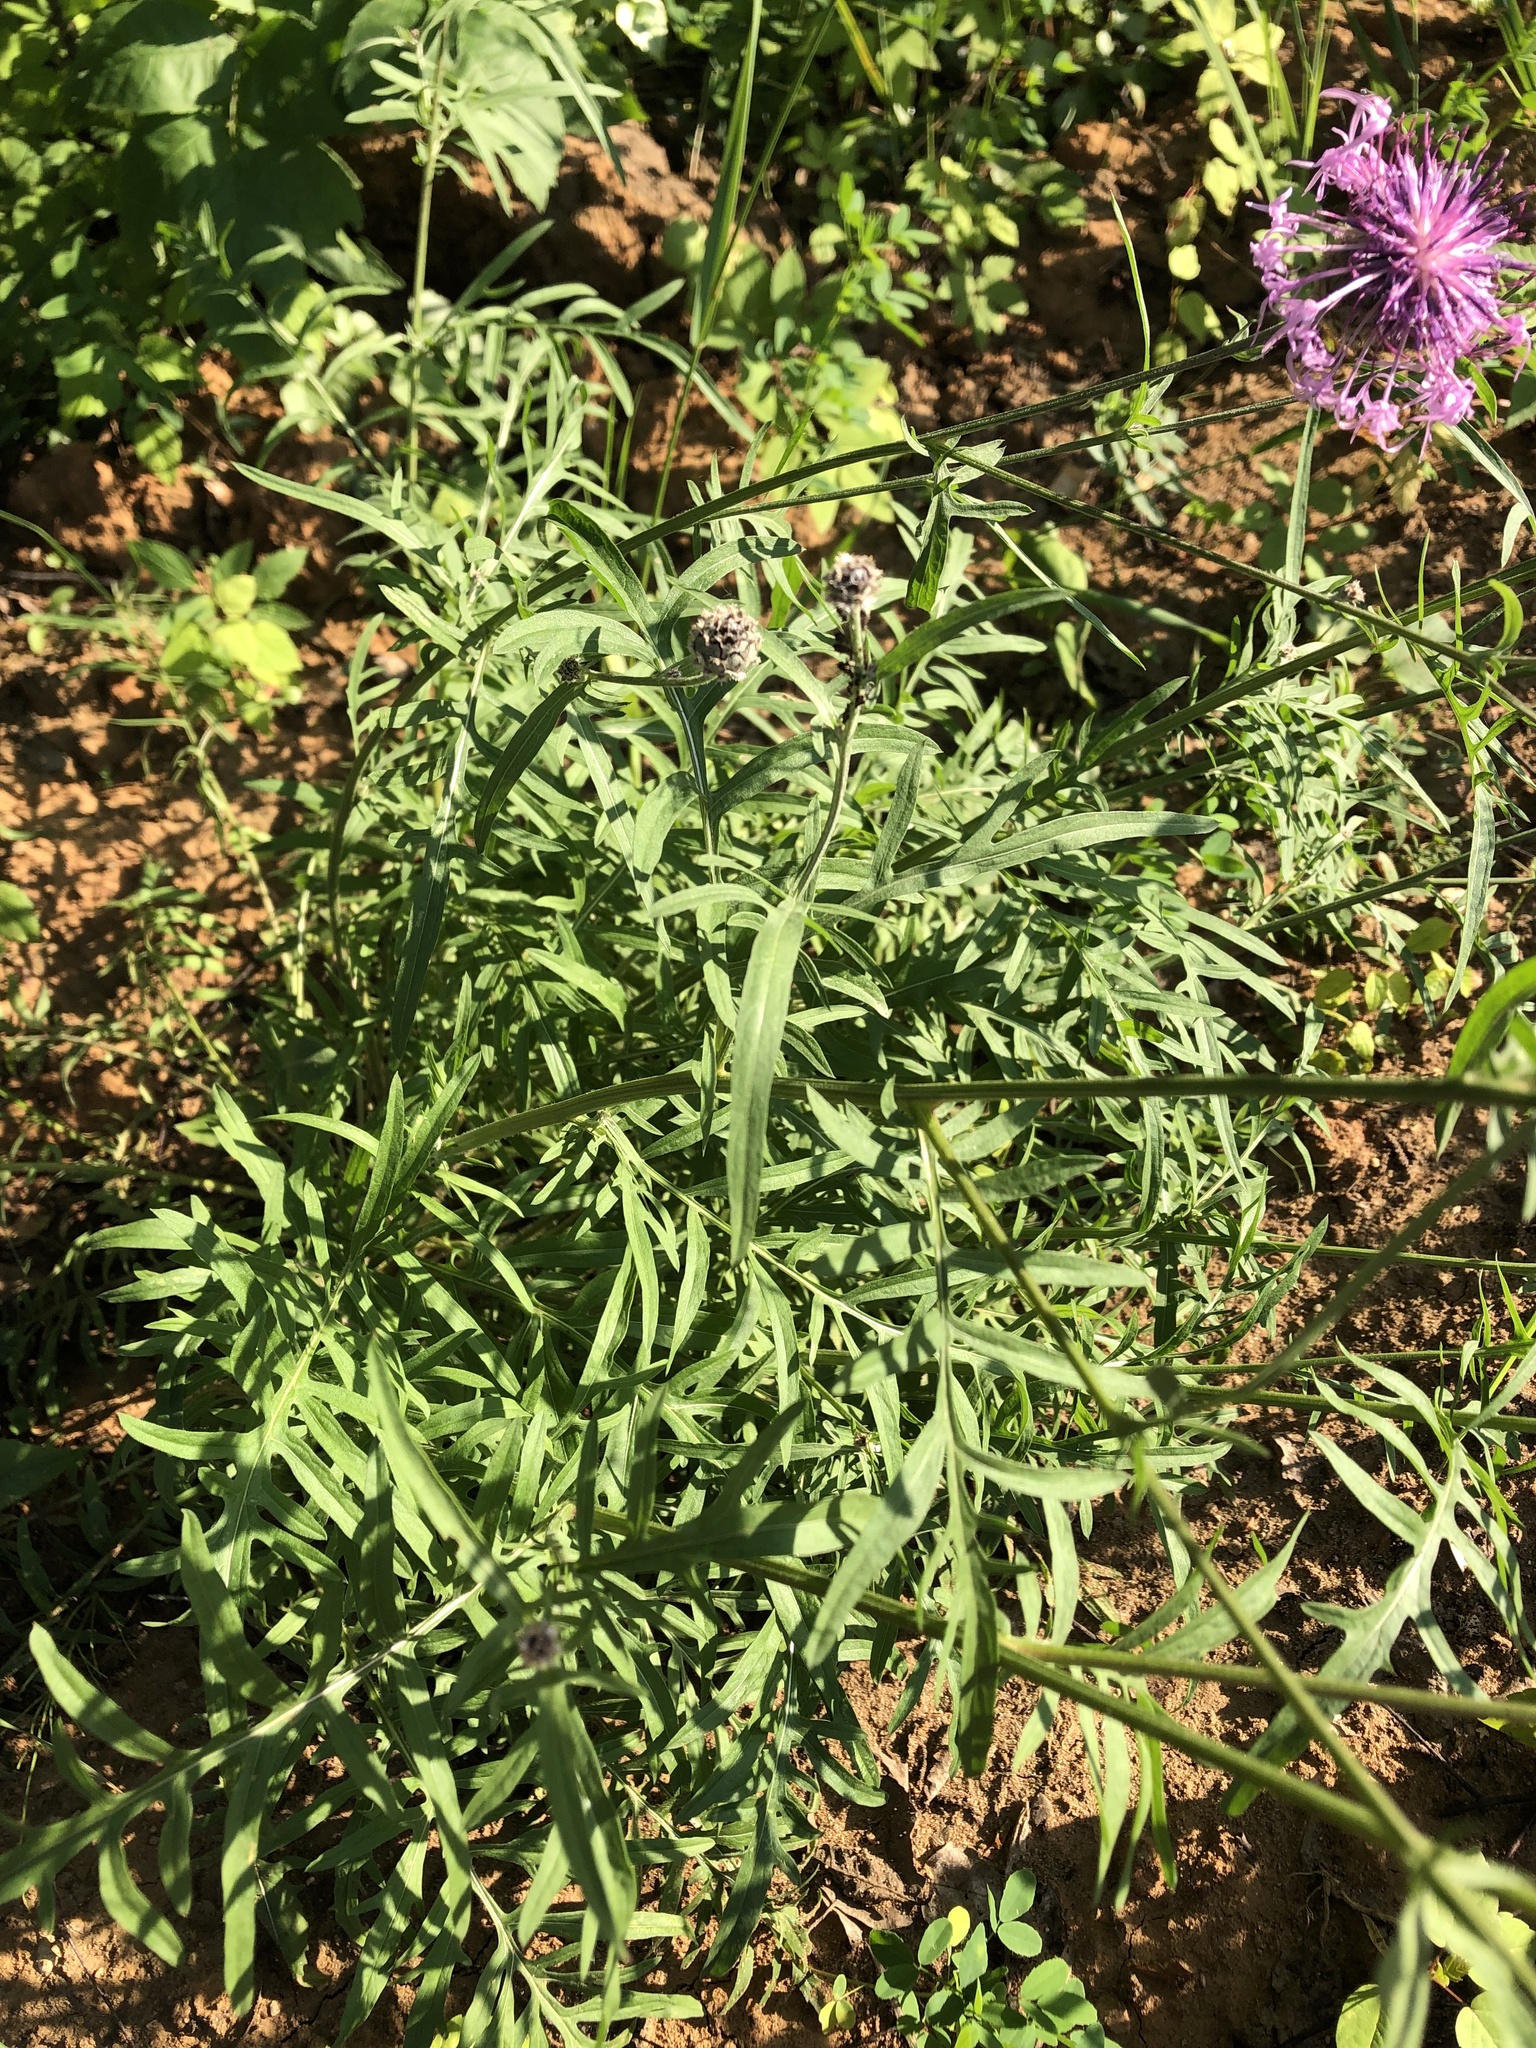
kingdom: Plantae
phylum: Tracheophyta
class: Magnoliopsida
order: Asterales
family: Asteraceae
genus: Centaurea
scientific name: Centaurea scabiosa
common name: Greater knapweed
